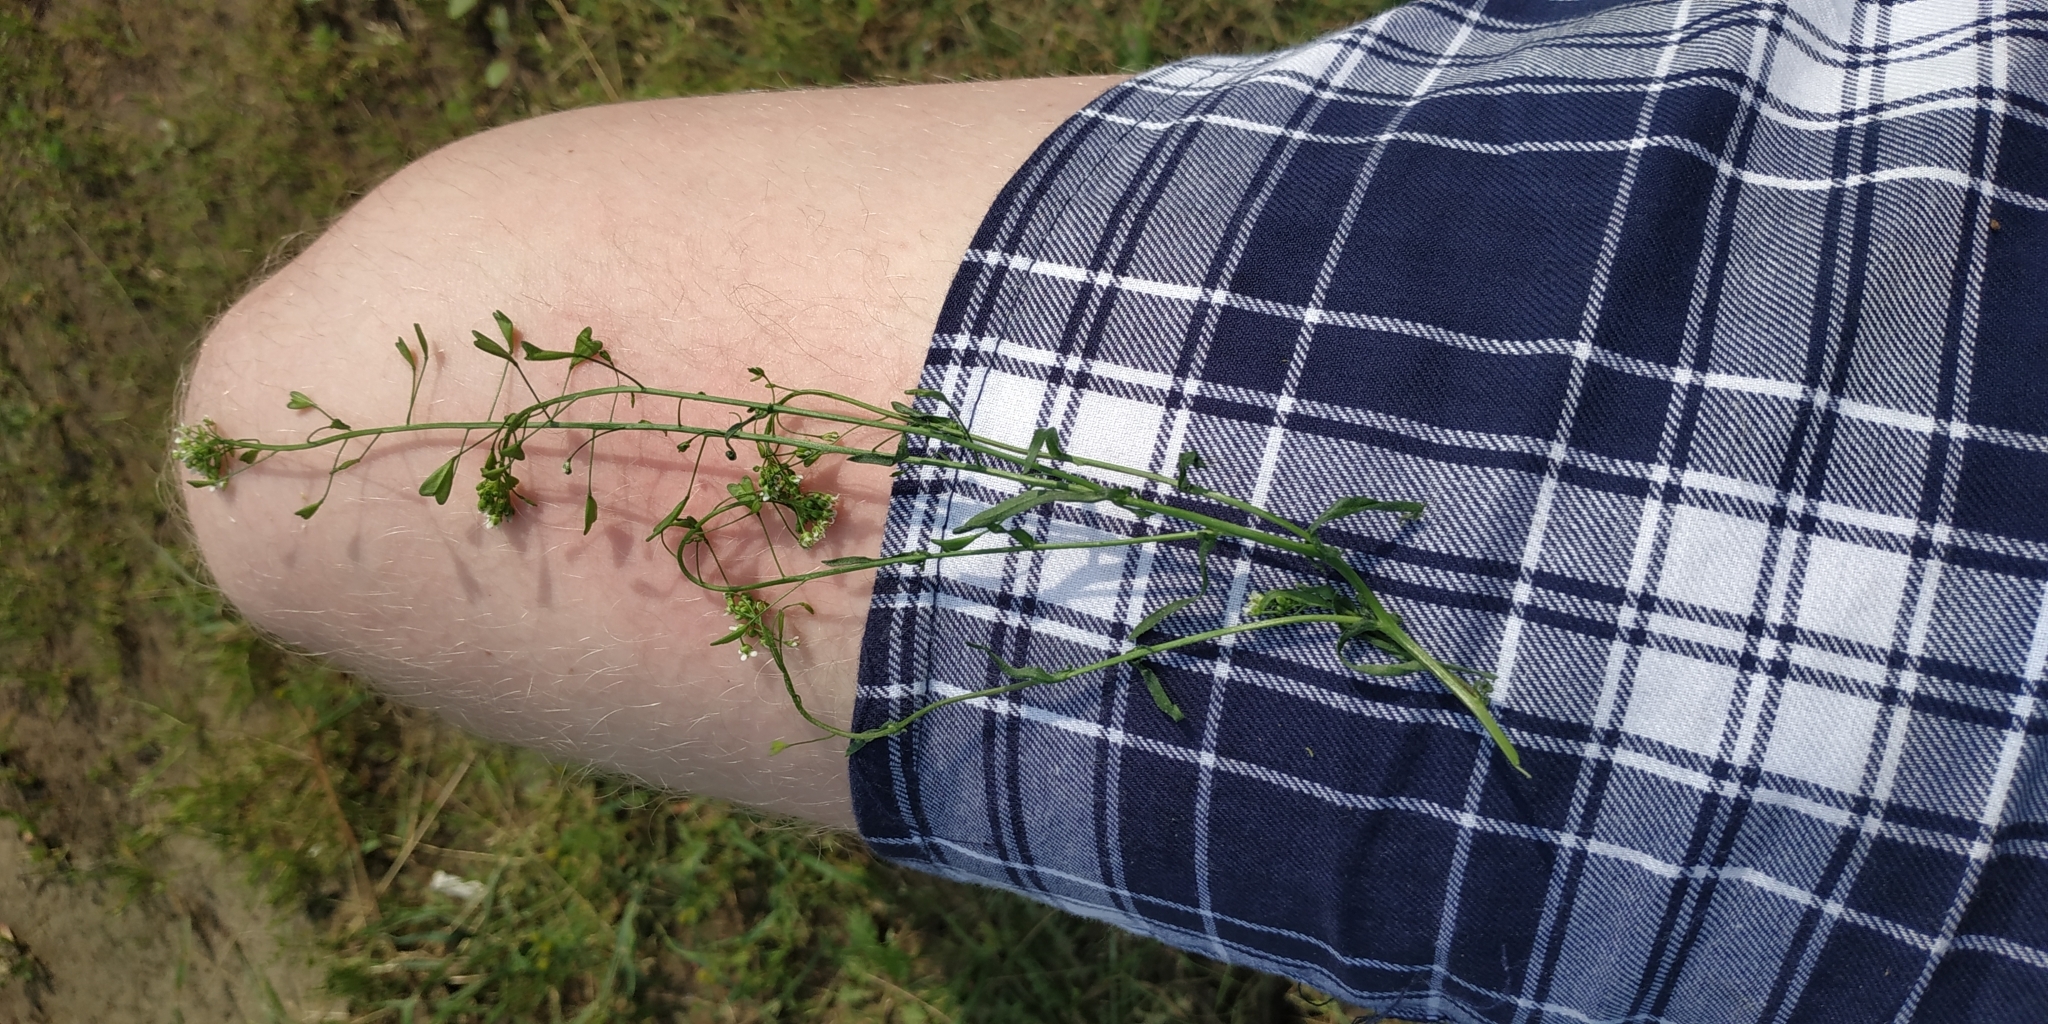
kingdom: Plantae
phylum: Tracheophyta
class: Magnoliopsida
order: Brassicales
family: Brassicaceae
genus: Capsella
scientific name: Capsella bursa-pastoris
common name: Shepherd's purse
